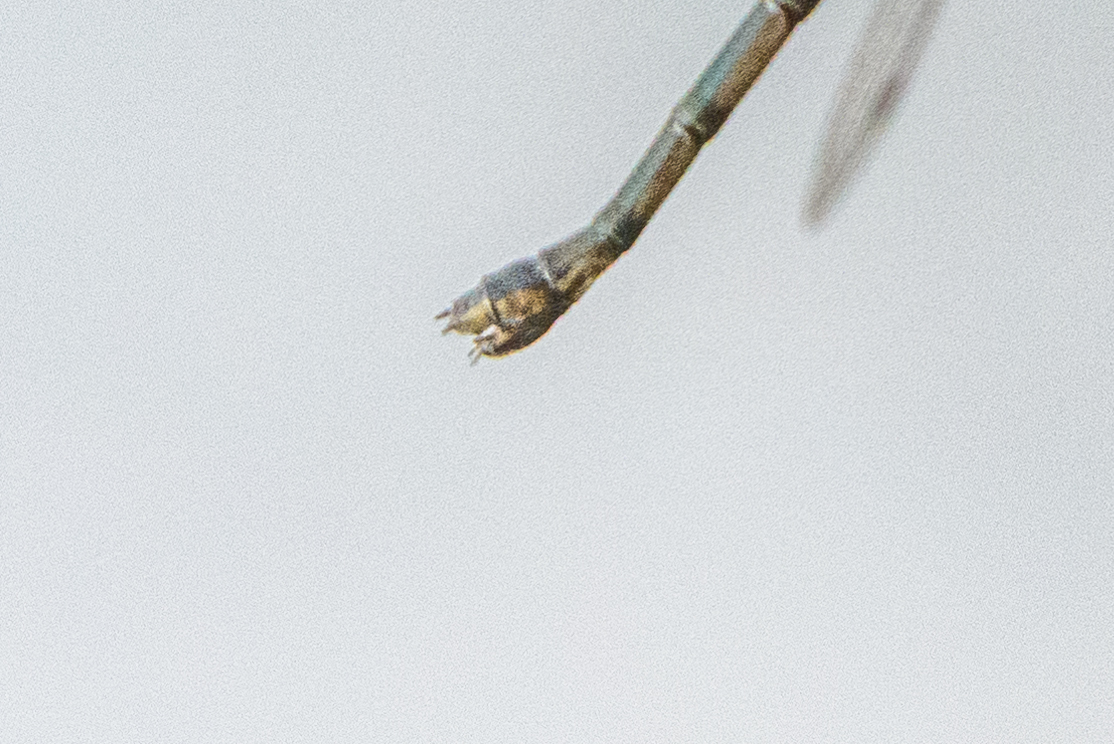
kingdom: Animalia
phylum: Arthropoda
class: Insecta
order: Odonata
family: Lestidae
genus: Lestes
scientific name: Lestes congener
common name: Spotted spreadwing
